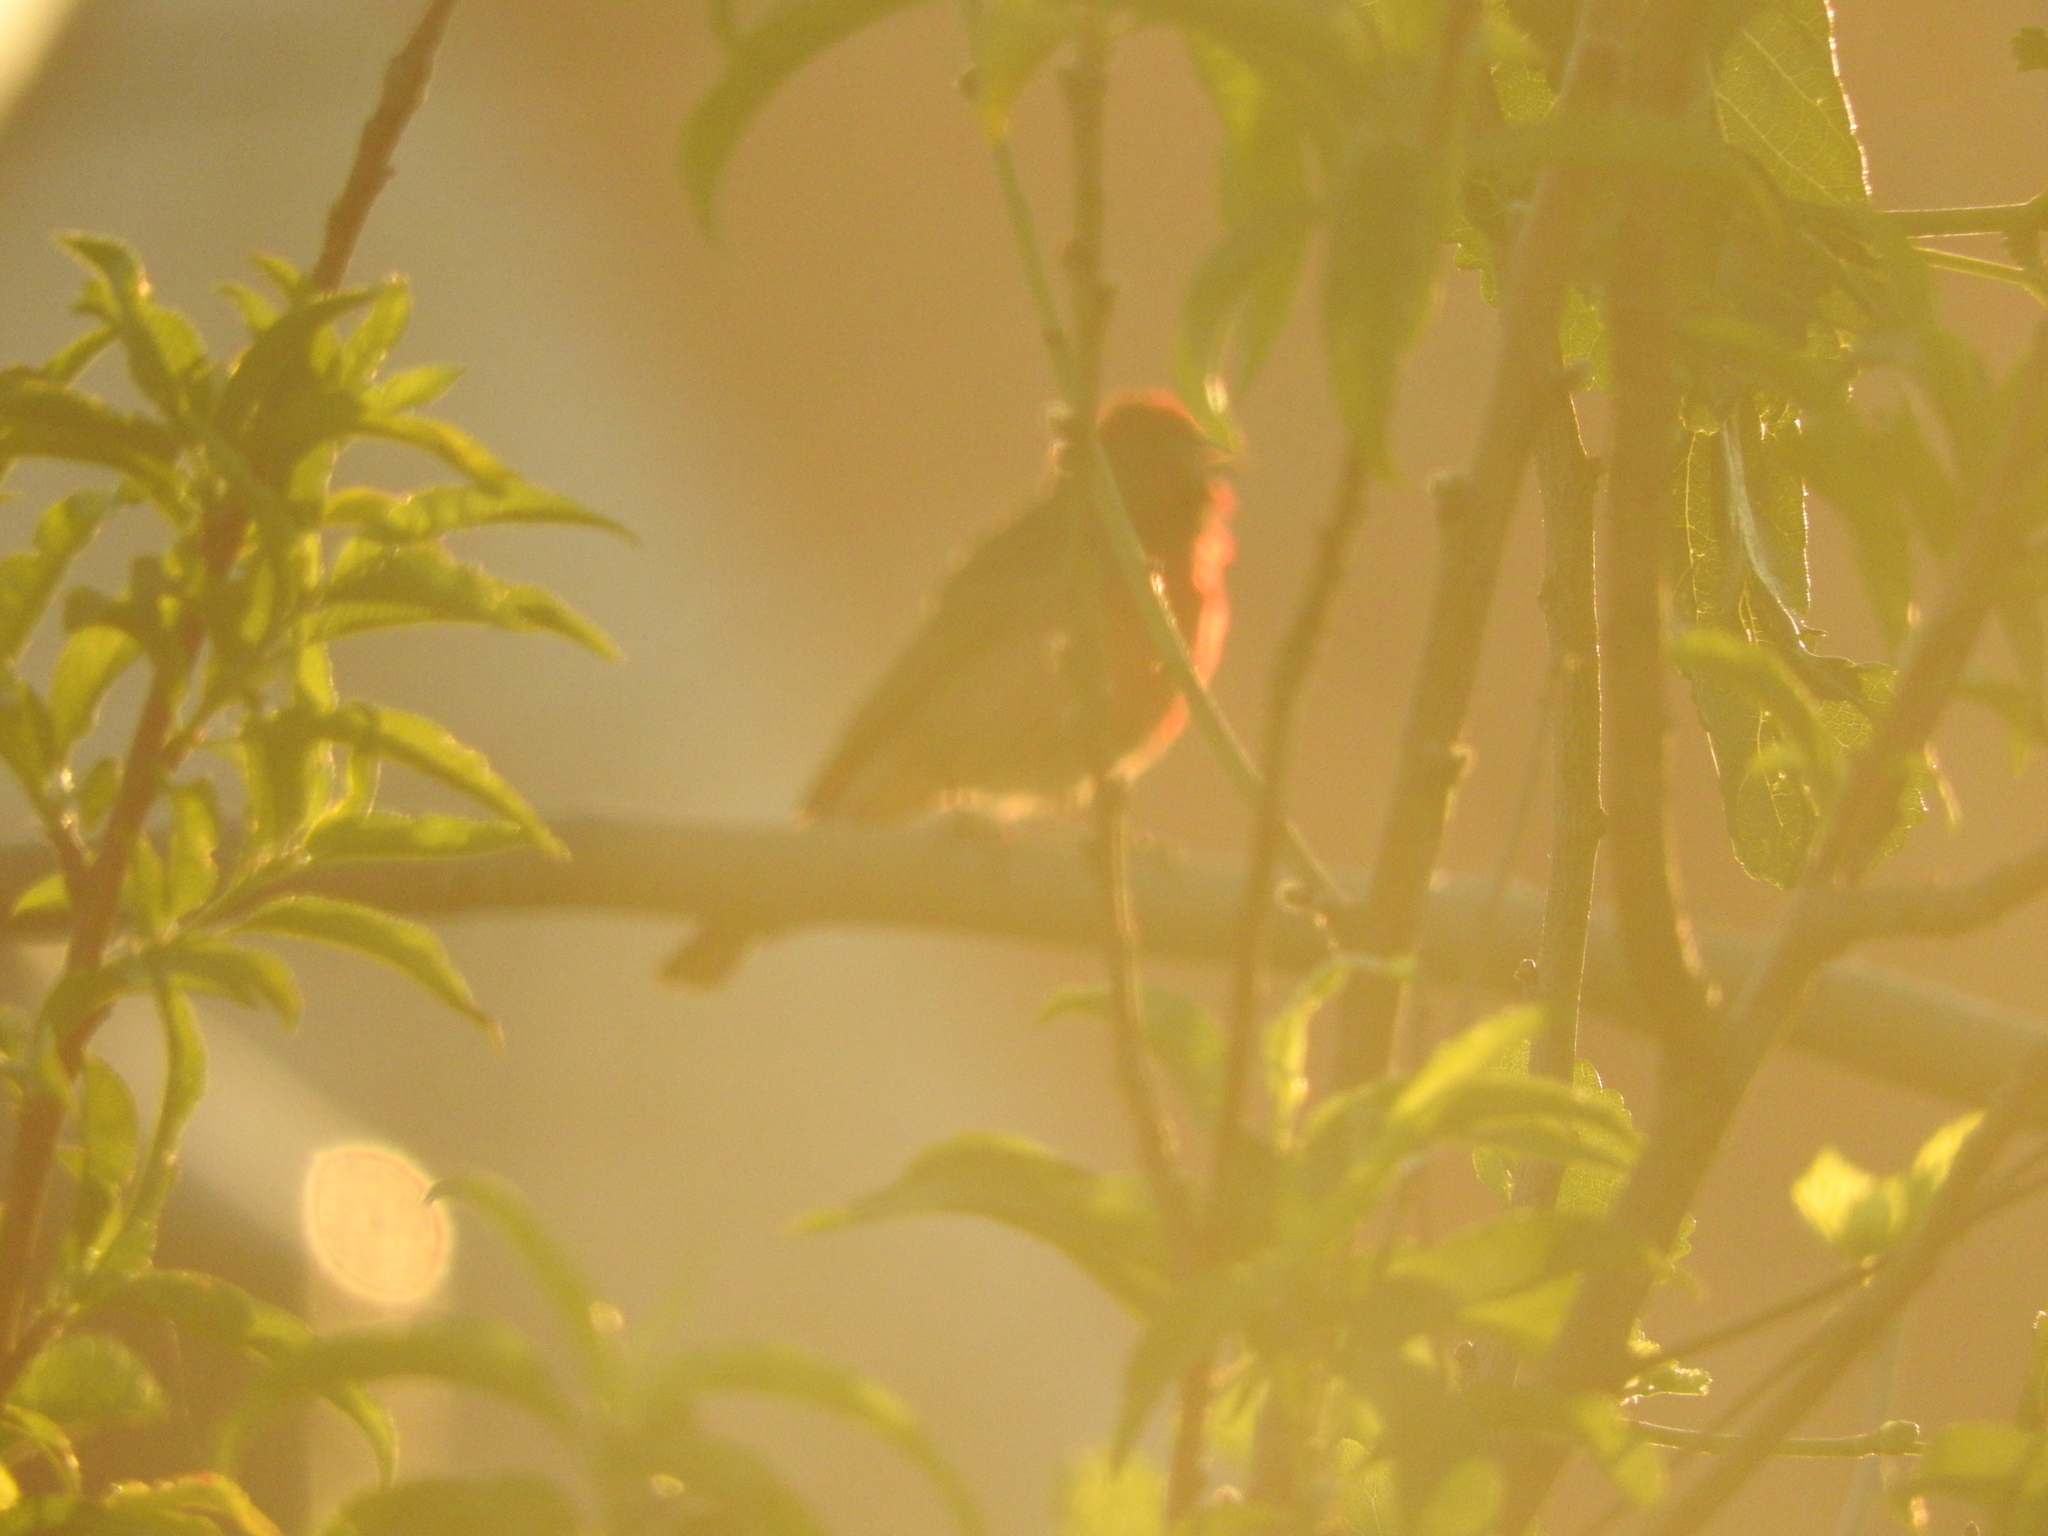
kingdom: Animalia
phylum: Chordata
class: Aves
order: Passeriformes
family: Fringillidae
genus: Haemorhous
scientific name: Haemorhous mexicanus
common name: House finch
